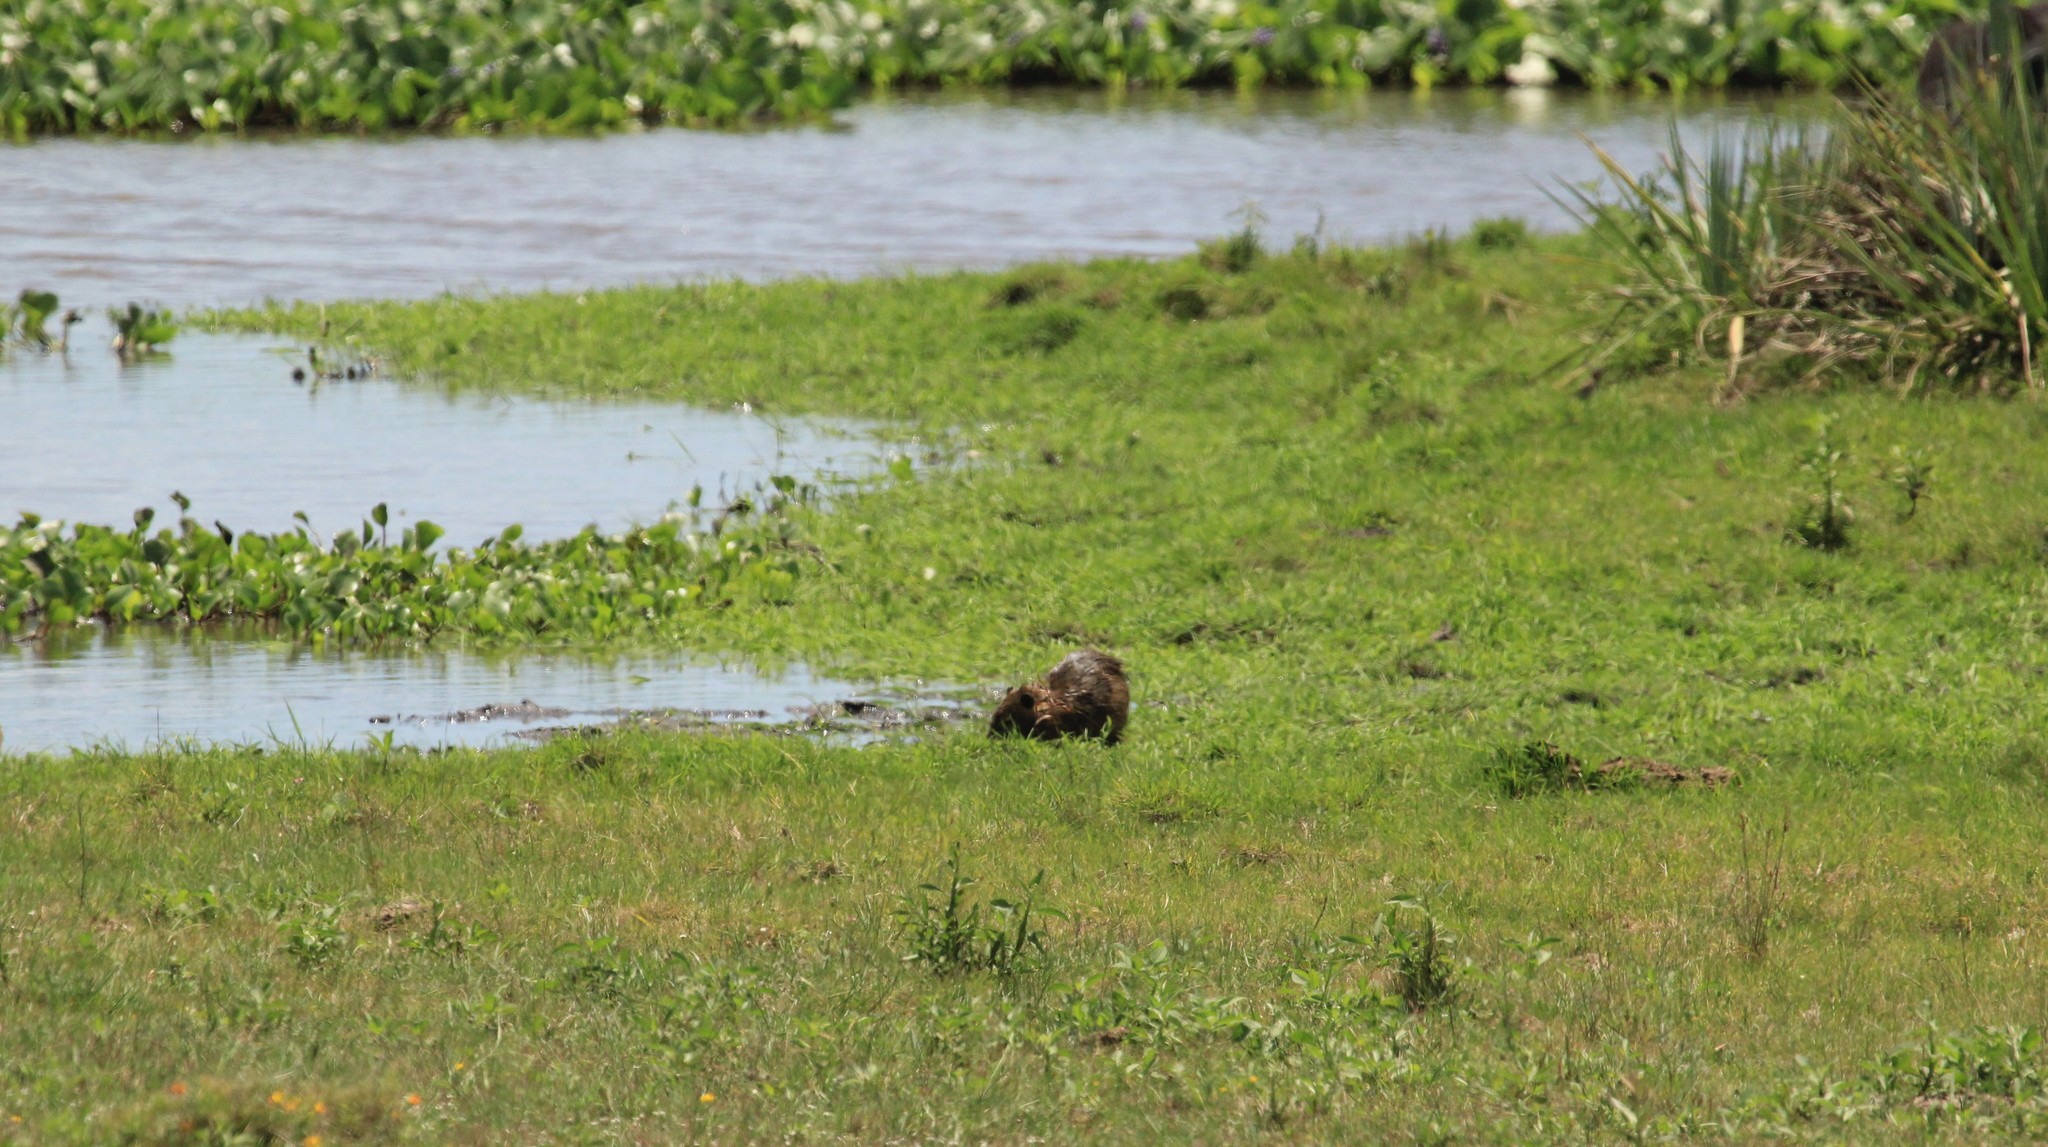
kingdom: Animalia
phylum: Chordata
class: Mammalia
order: Rodentia
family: Myocastoridae
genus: Myocastor
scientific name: Myocastor coypus
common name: Coypu
